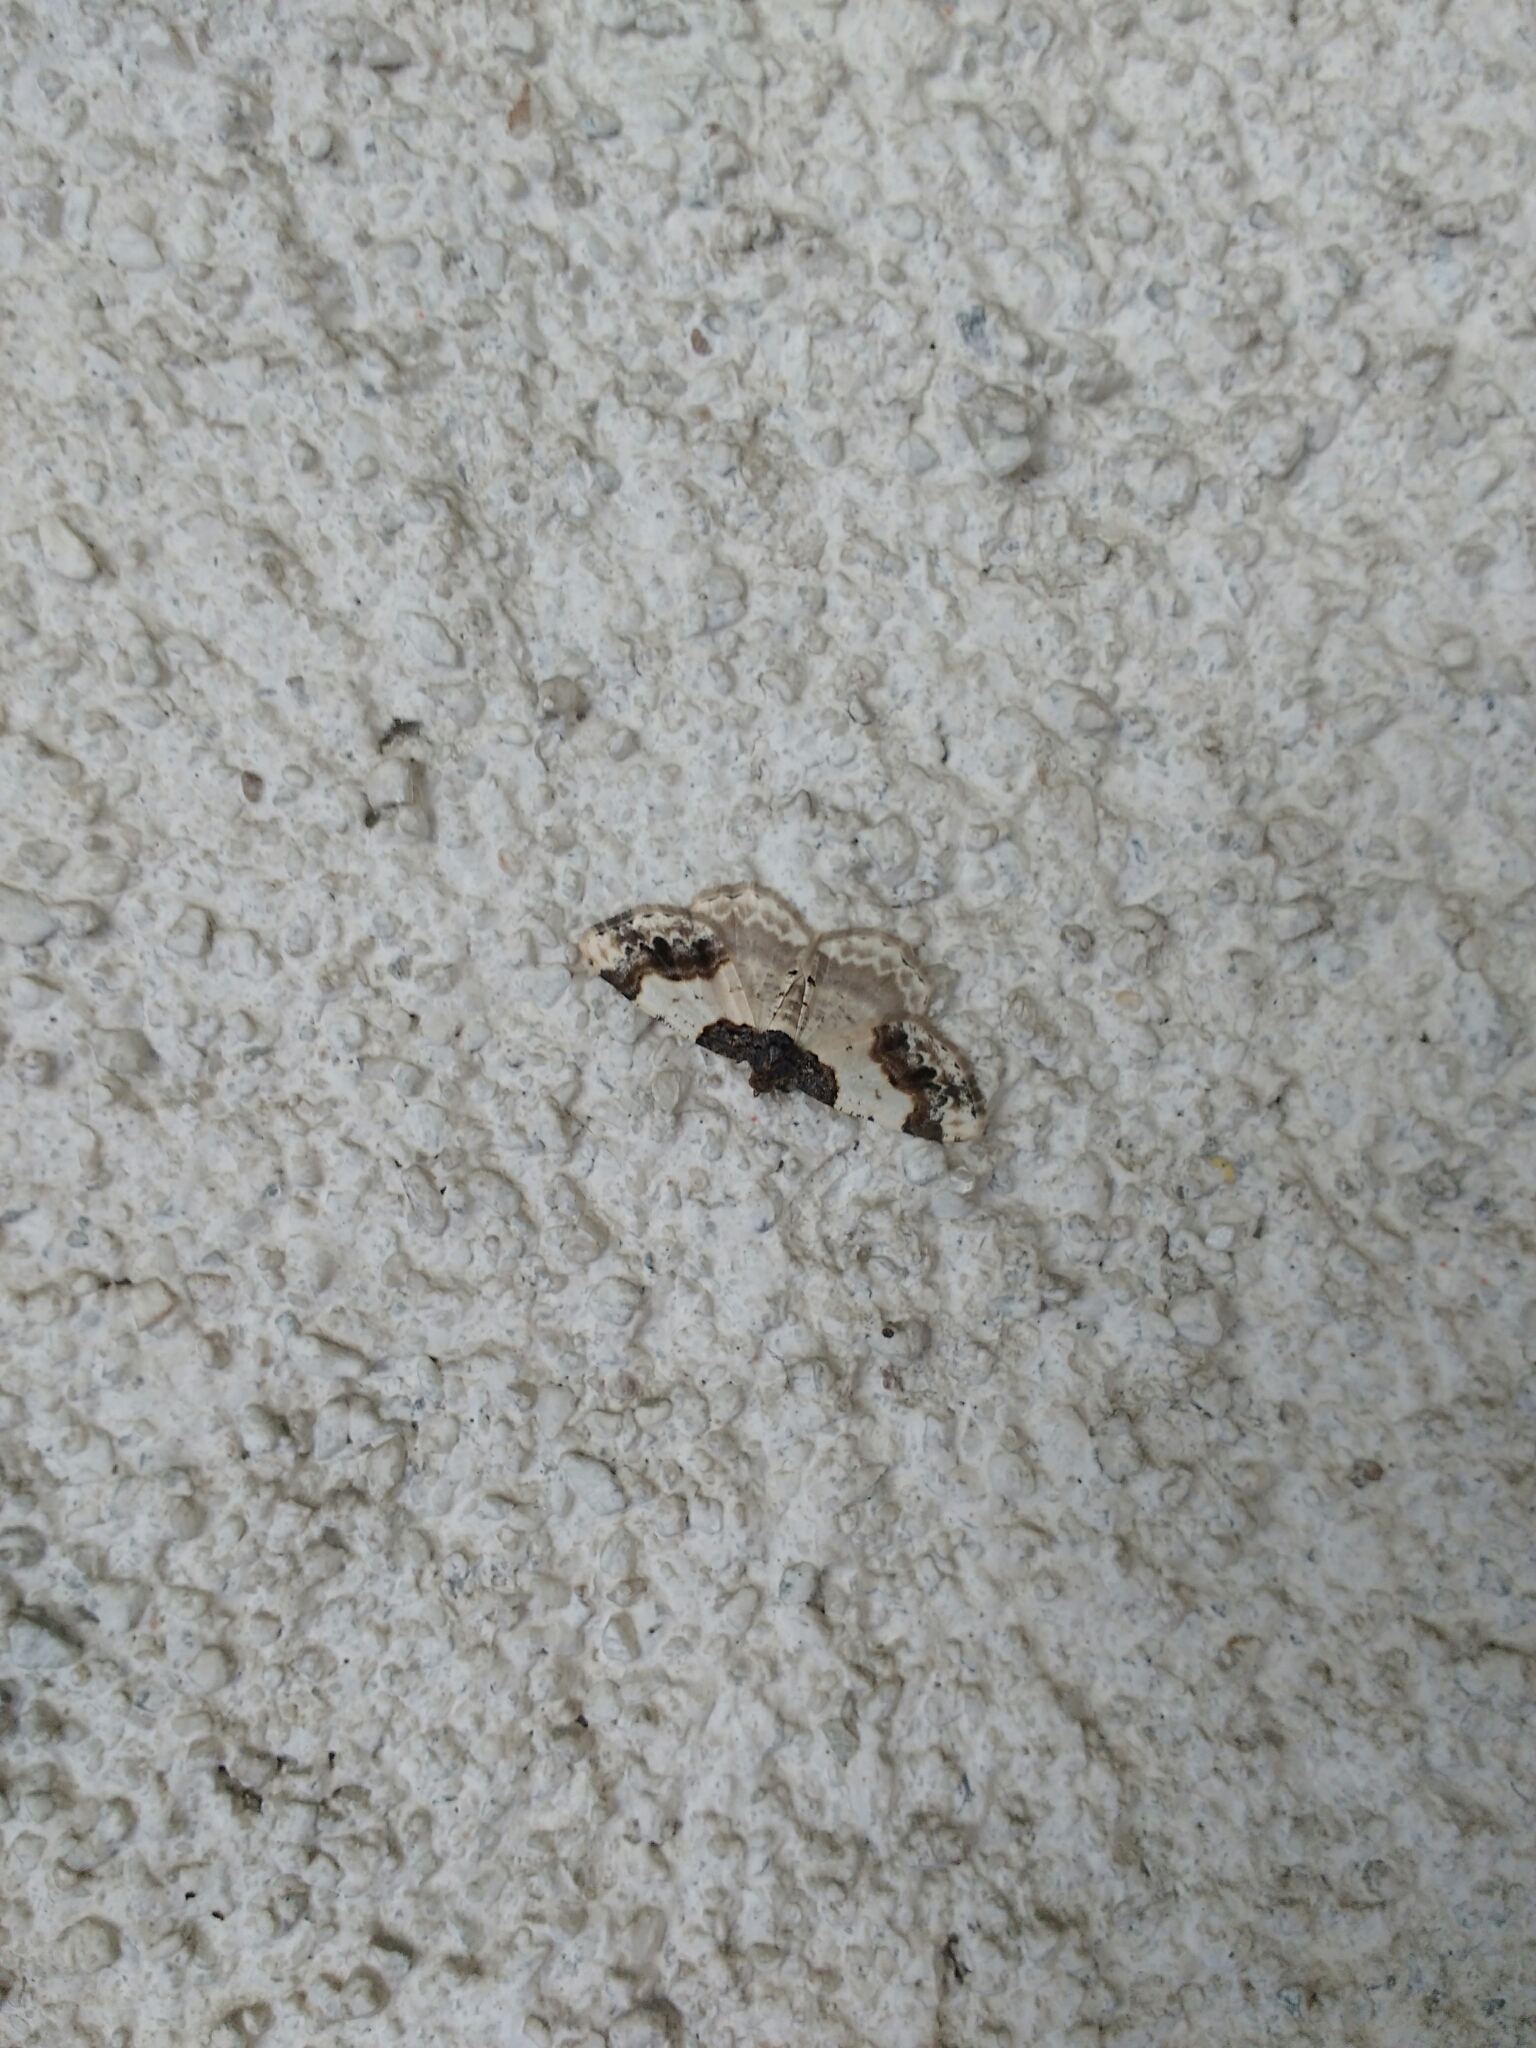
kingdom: Animalia
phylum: Arthropoda
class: Insecta
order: Lepidoptera
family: Geometridae
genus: Ligdia
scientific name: Ligdia adustata
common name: Scorched carpet
